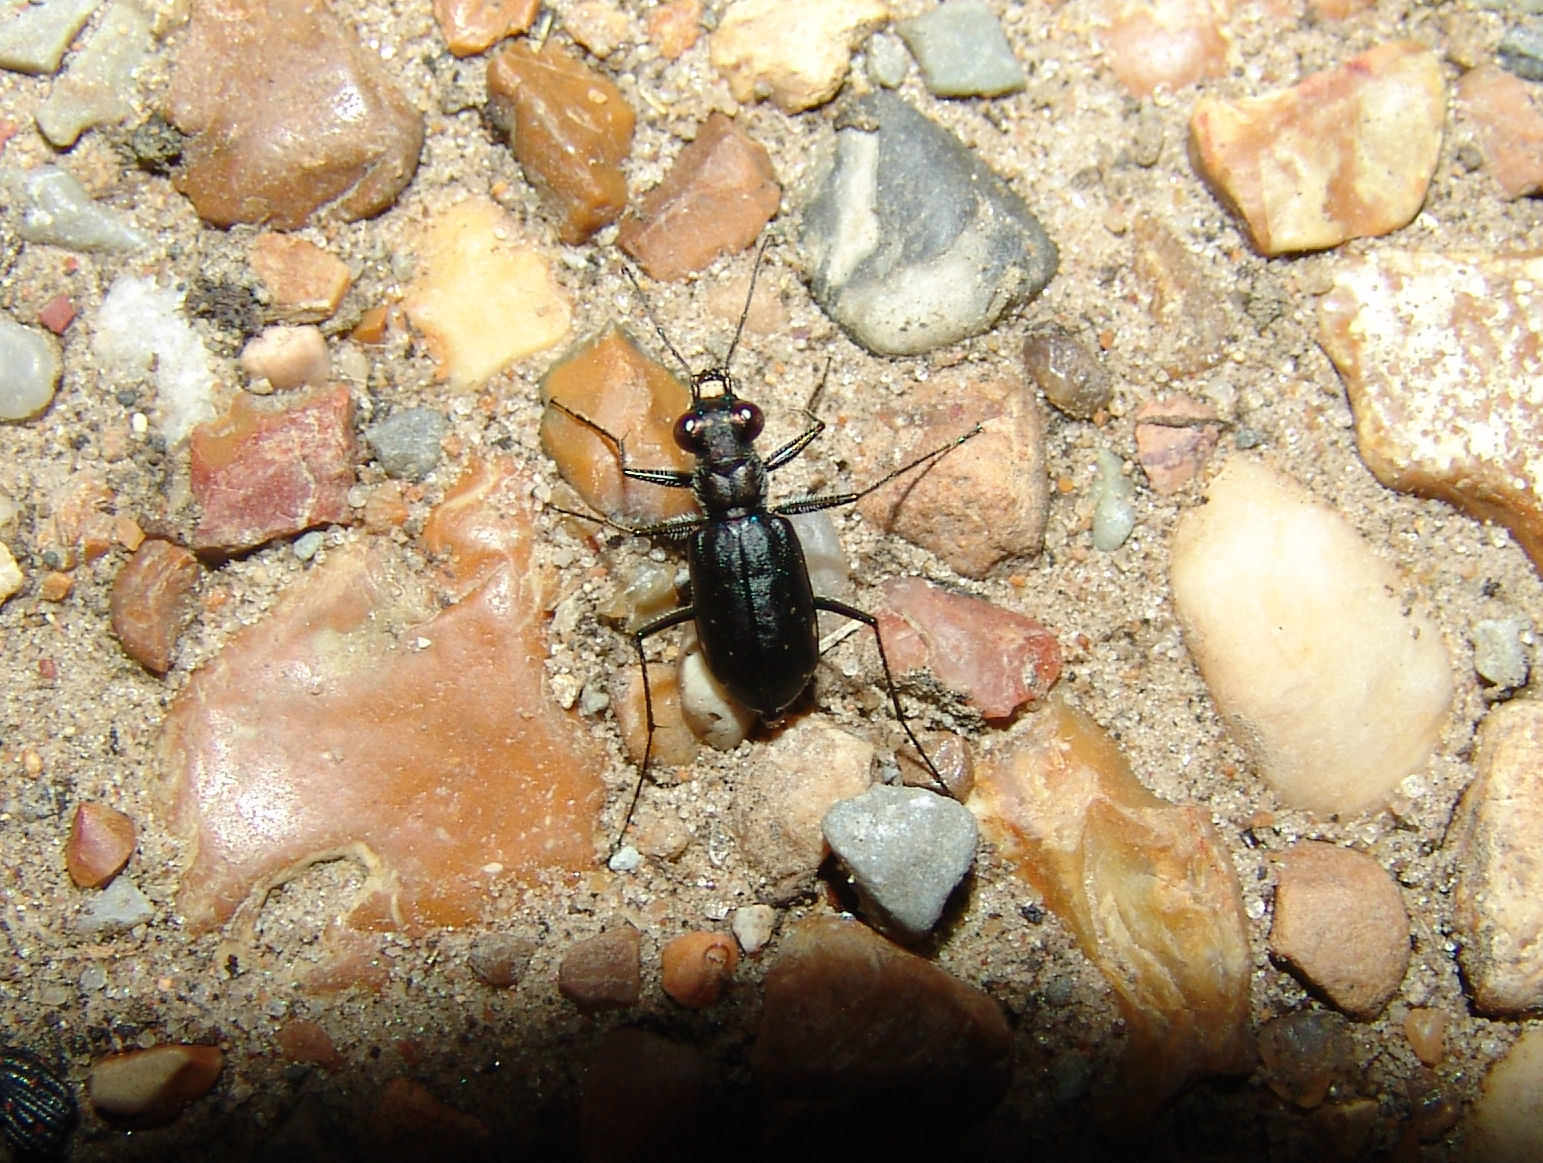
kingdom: Animalia
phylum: Arthropoda
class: Insecta
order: Coleoptera
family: Carabidae
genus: Cicindela
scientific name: Cicindela punctulata
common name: Punctured tiger beetle
